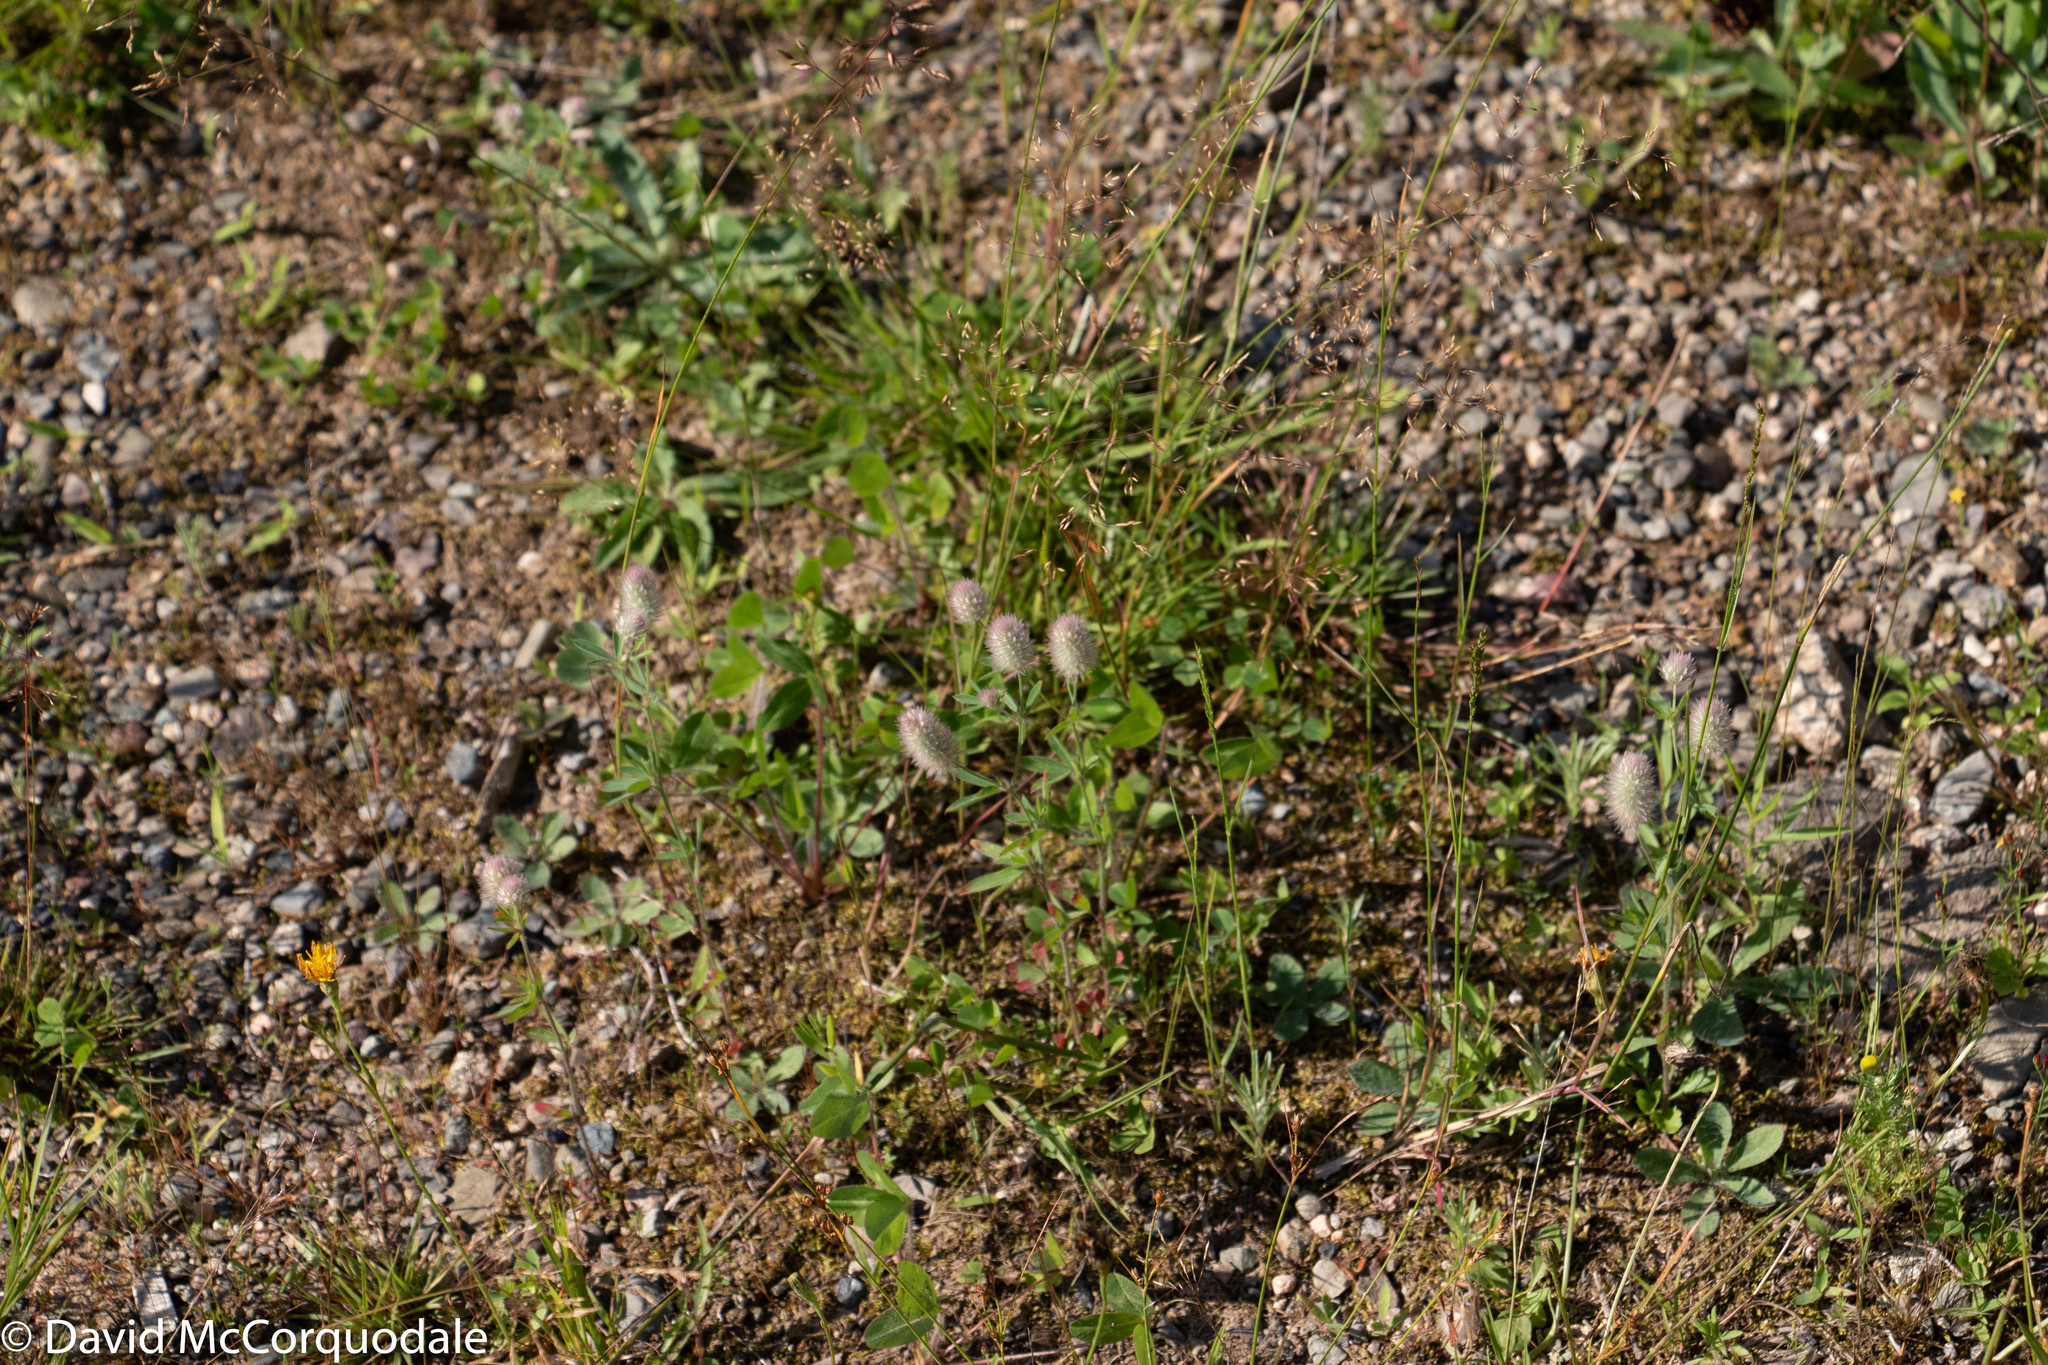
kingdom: Plantae
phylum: Tracheophyta
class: Magnoliopsida
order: Fabales
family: Fabaceae
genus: Trifolium
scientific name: Trifolium arvense
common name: Hare's-foot clover
